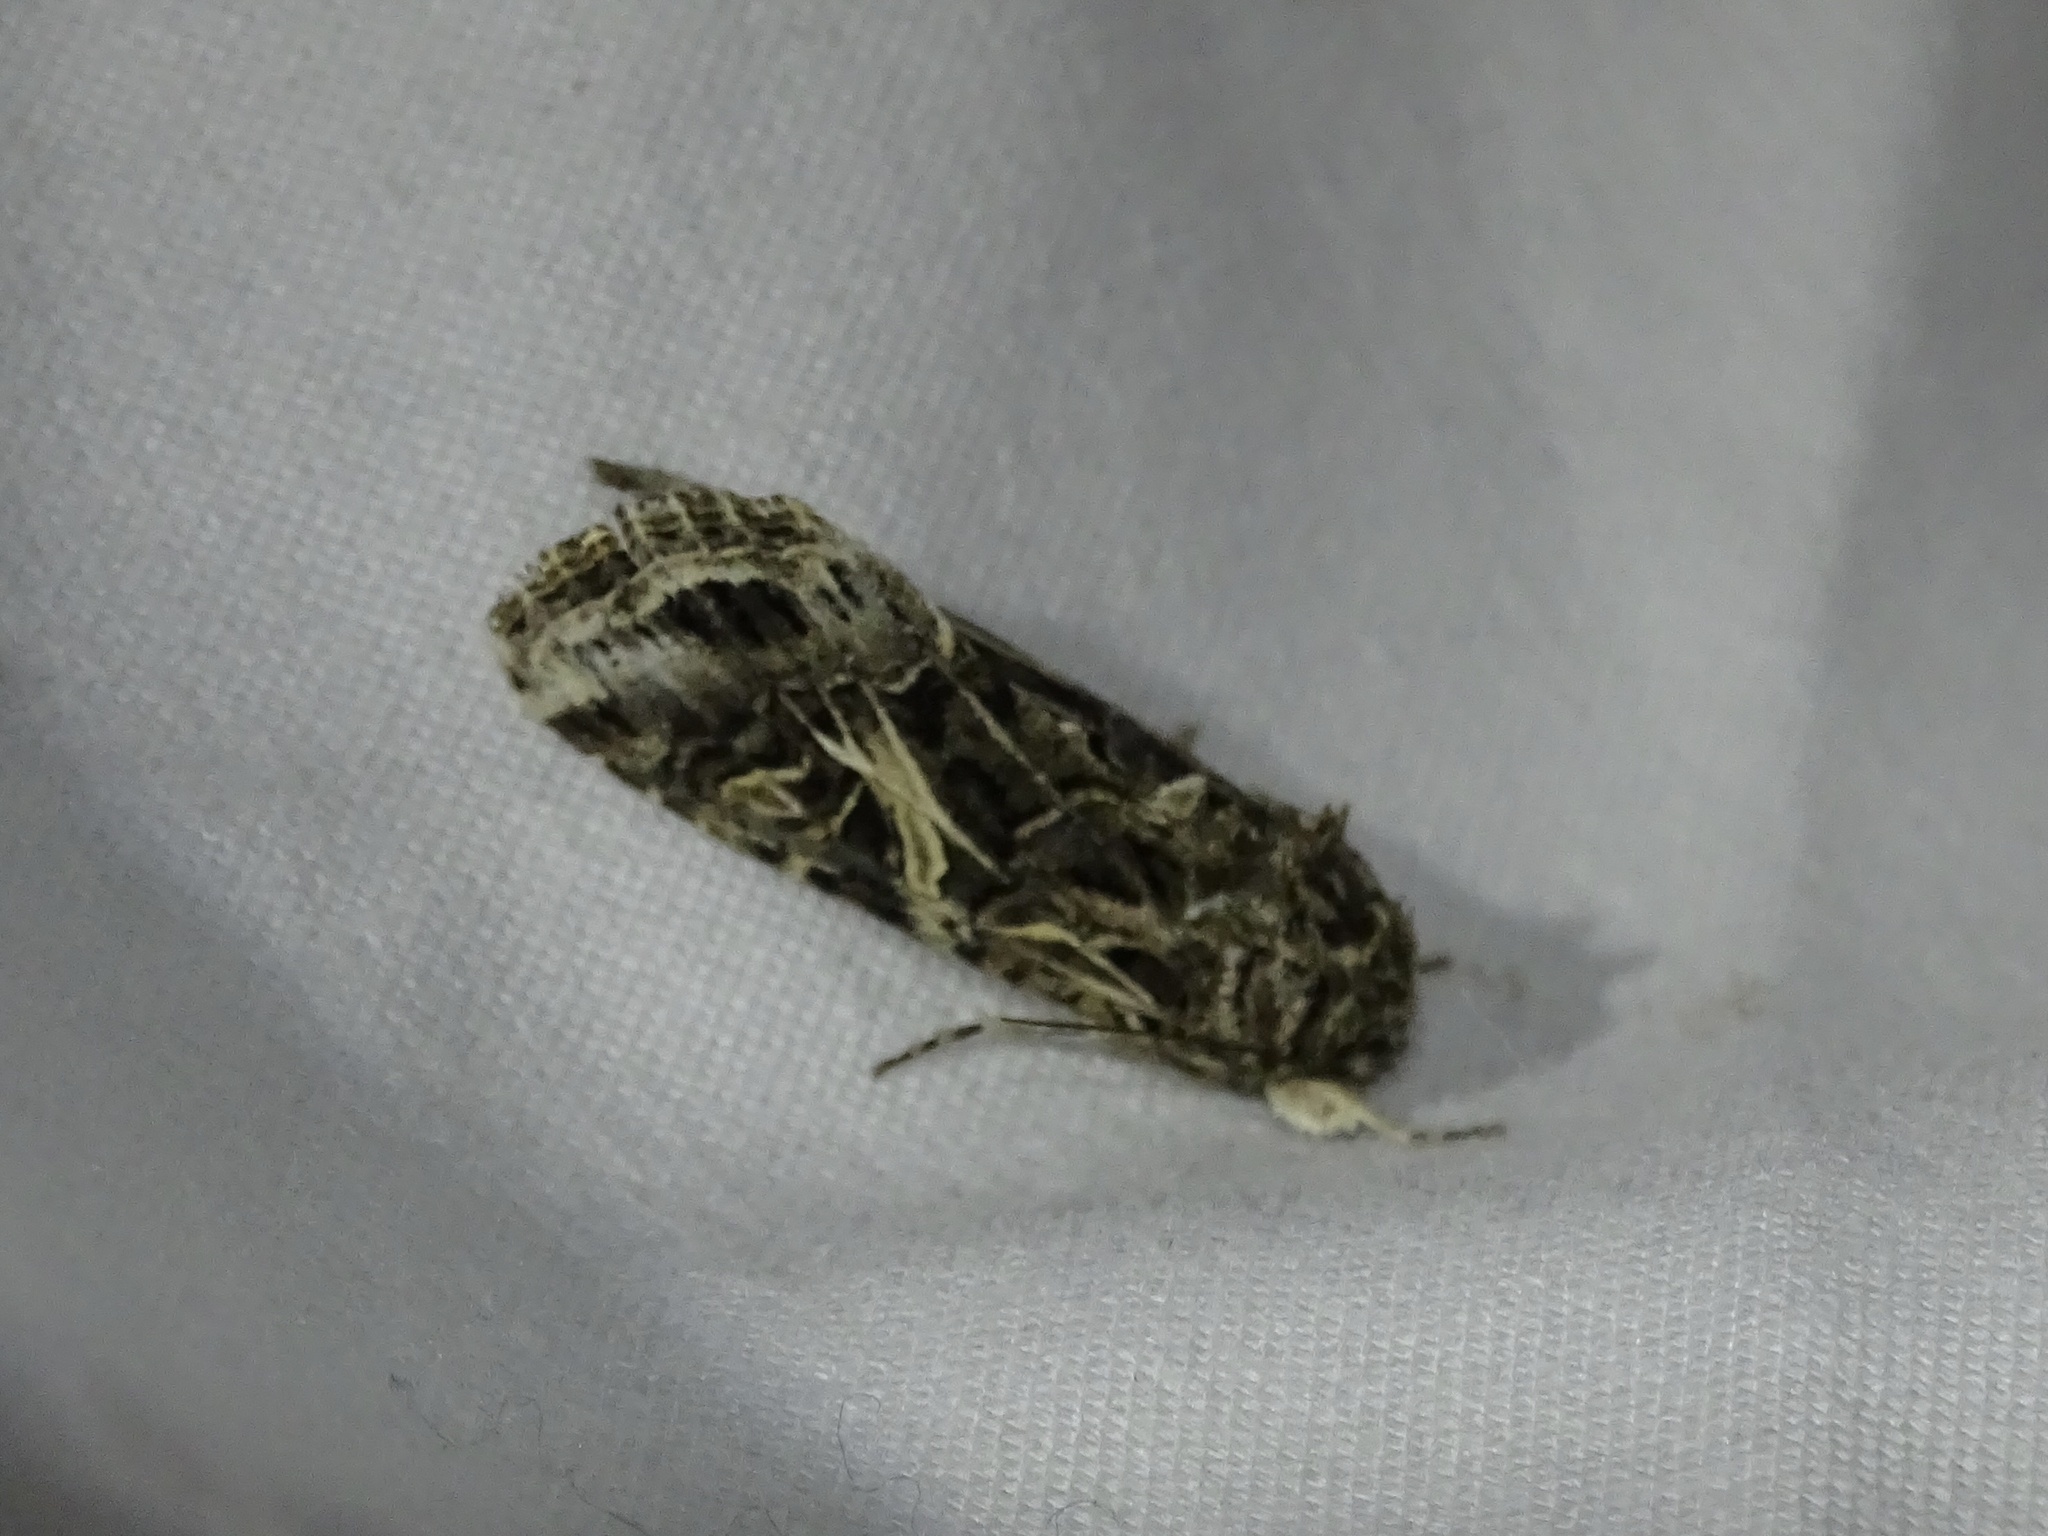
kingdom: Animalia
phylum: Arthropoda
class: Insecta
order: Lepidoptera
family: Noctuidae
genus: Spodoptera
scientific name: Spodoptera ornithogalli
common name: Yellow-striped armyworm
